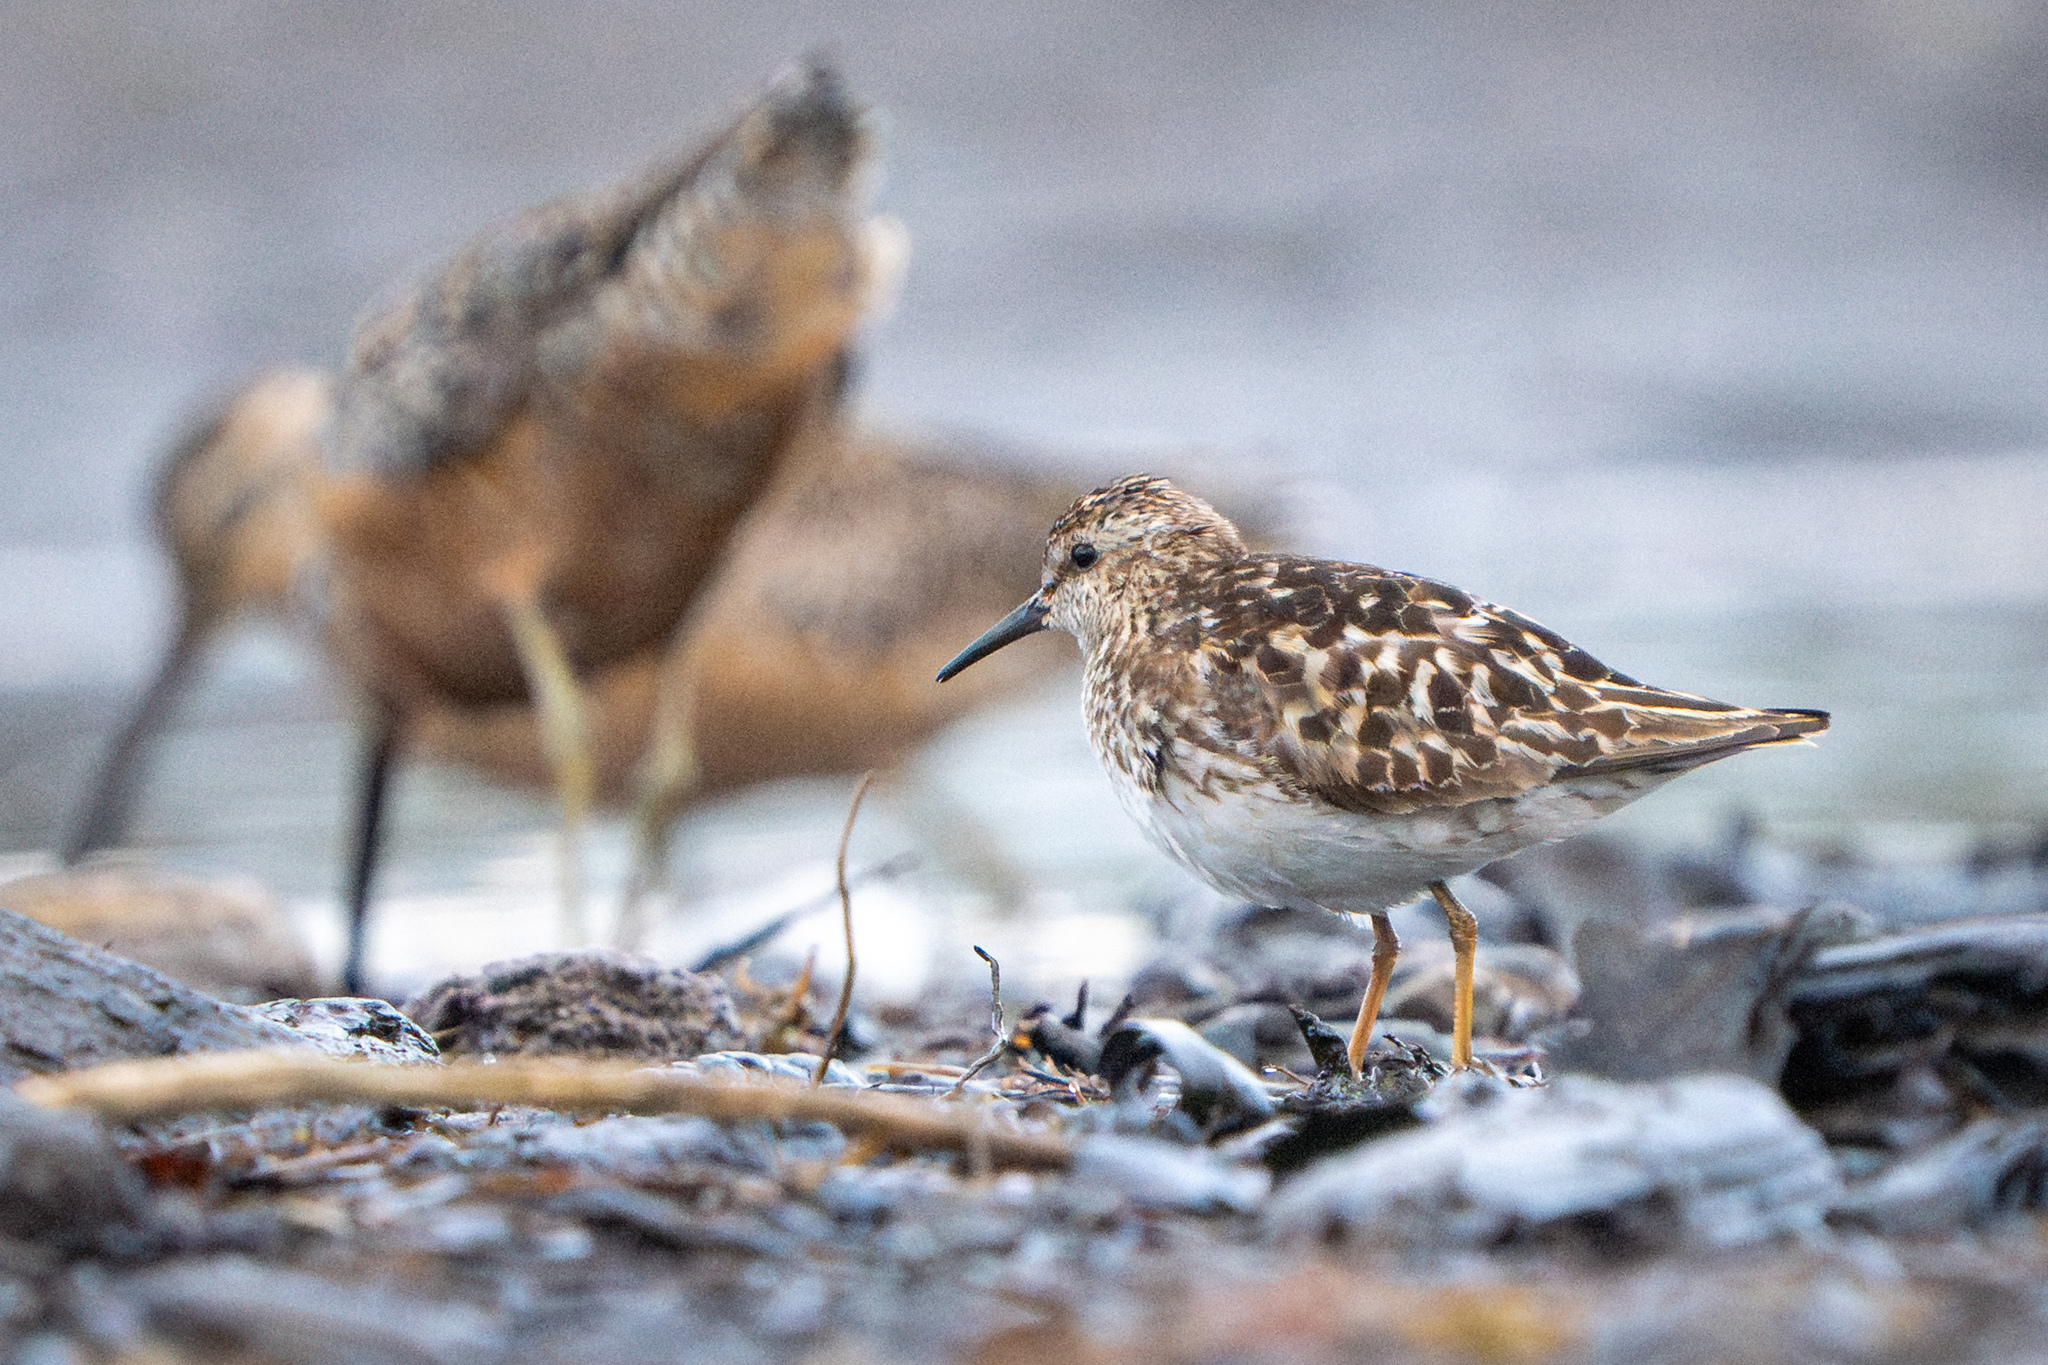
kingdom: Animalia
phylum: Chordata
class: Aves
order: Charadriiformes
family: Scolopacidae
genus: Calidris
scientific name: Calidris minutilla
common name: Least sandpiper
